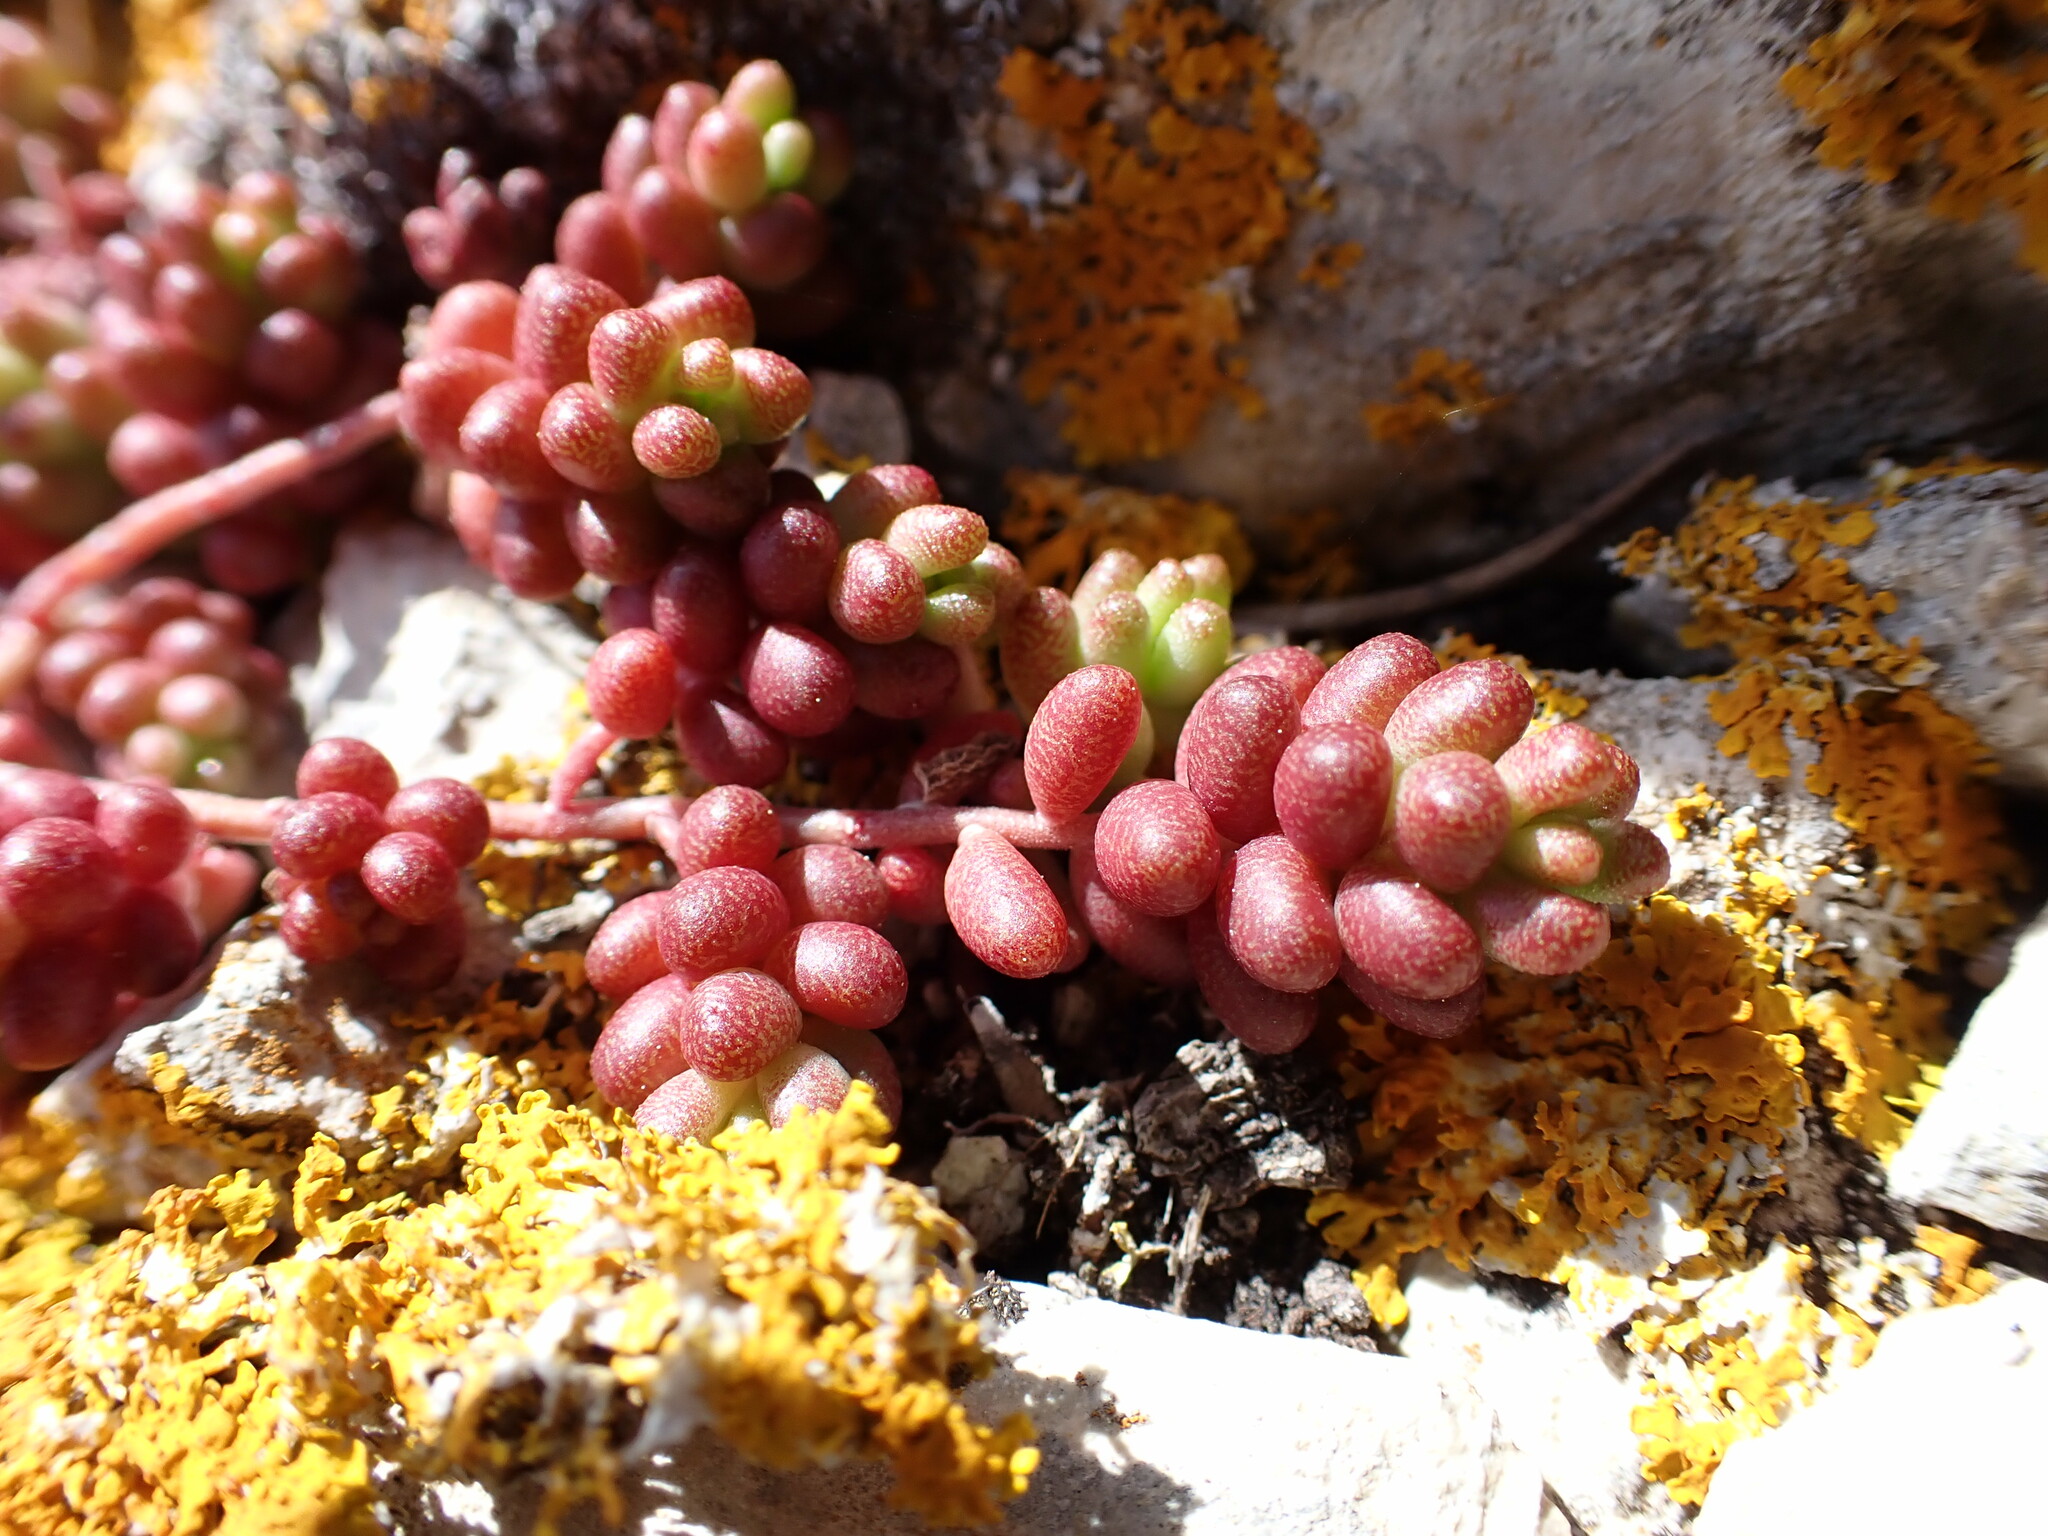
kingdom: Plantae
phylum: Tracheophyta
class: Magnoliopsida
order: Saxifragales
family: Crassulaceae
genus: Sedum
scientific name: Sedum album
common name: White stonecrop
